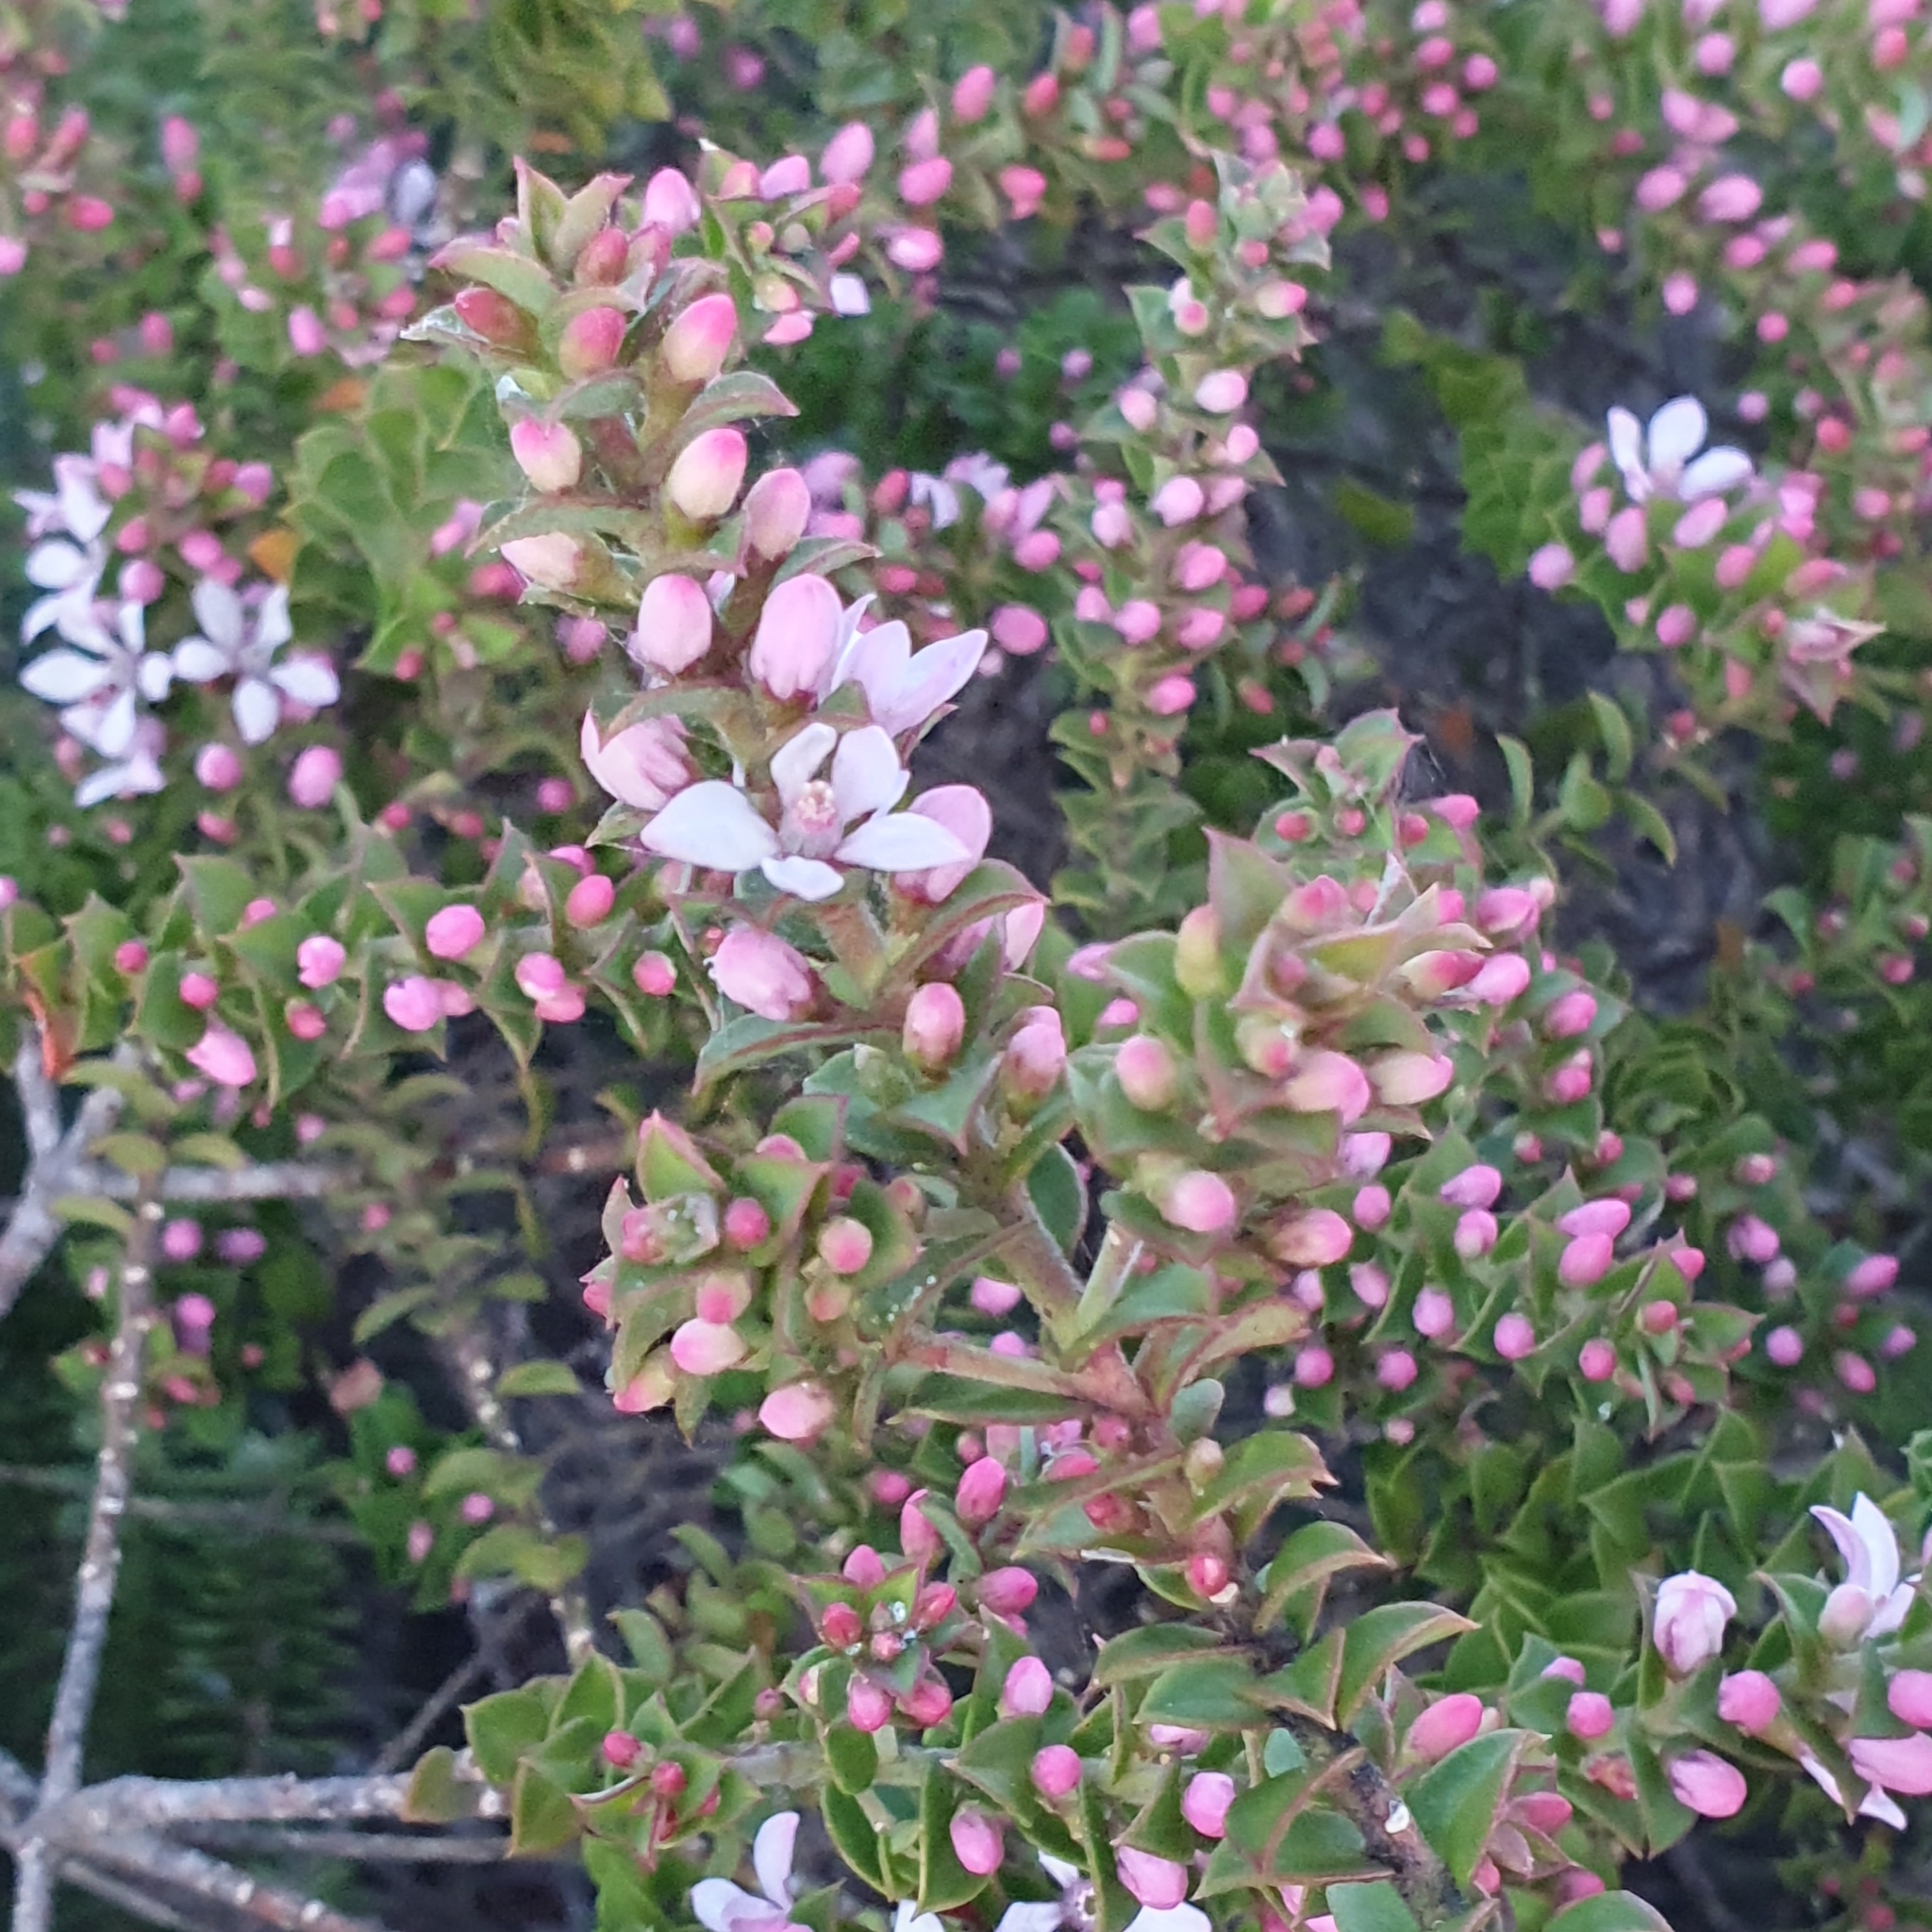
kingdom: Plantae
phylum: Tracheophyta
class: Magnoliopsida
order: Sapindales
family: Rutaceae
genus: Philotheca
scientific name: Philotheca buxifolia
